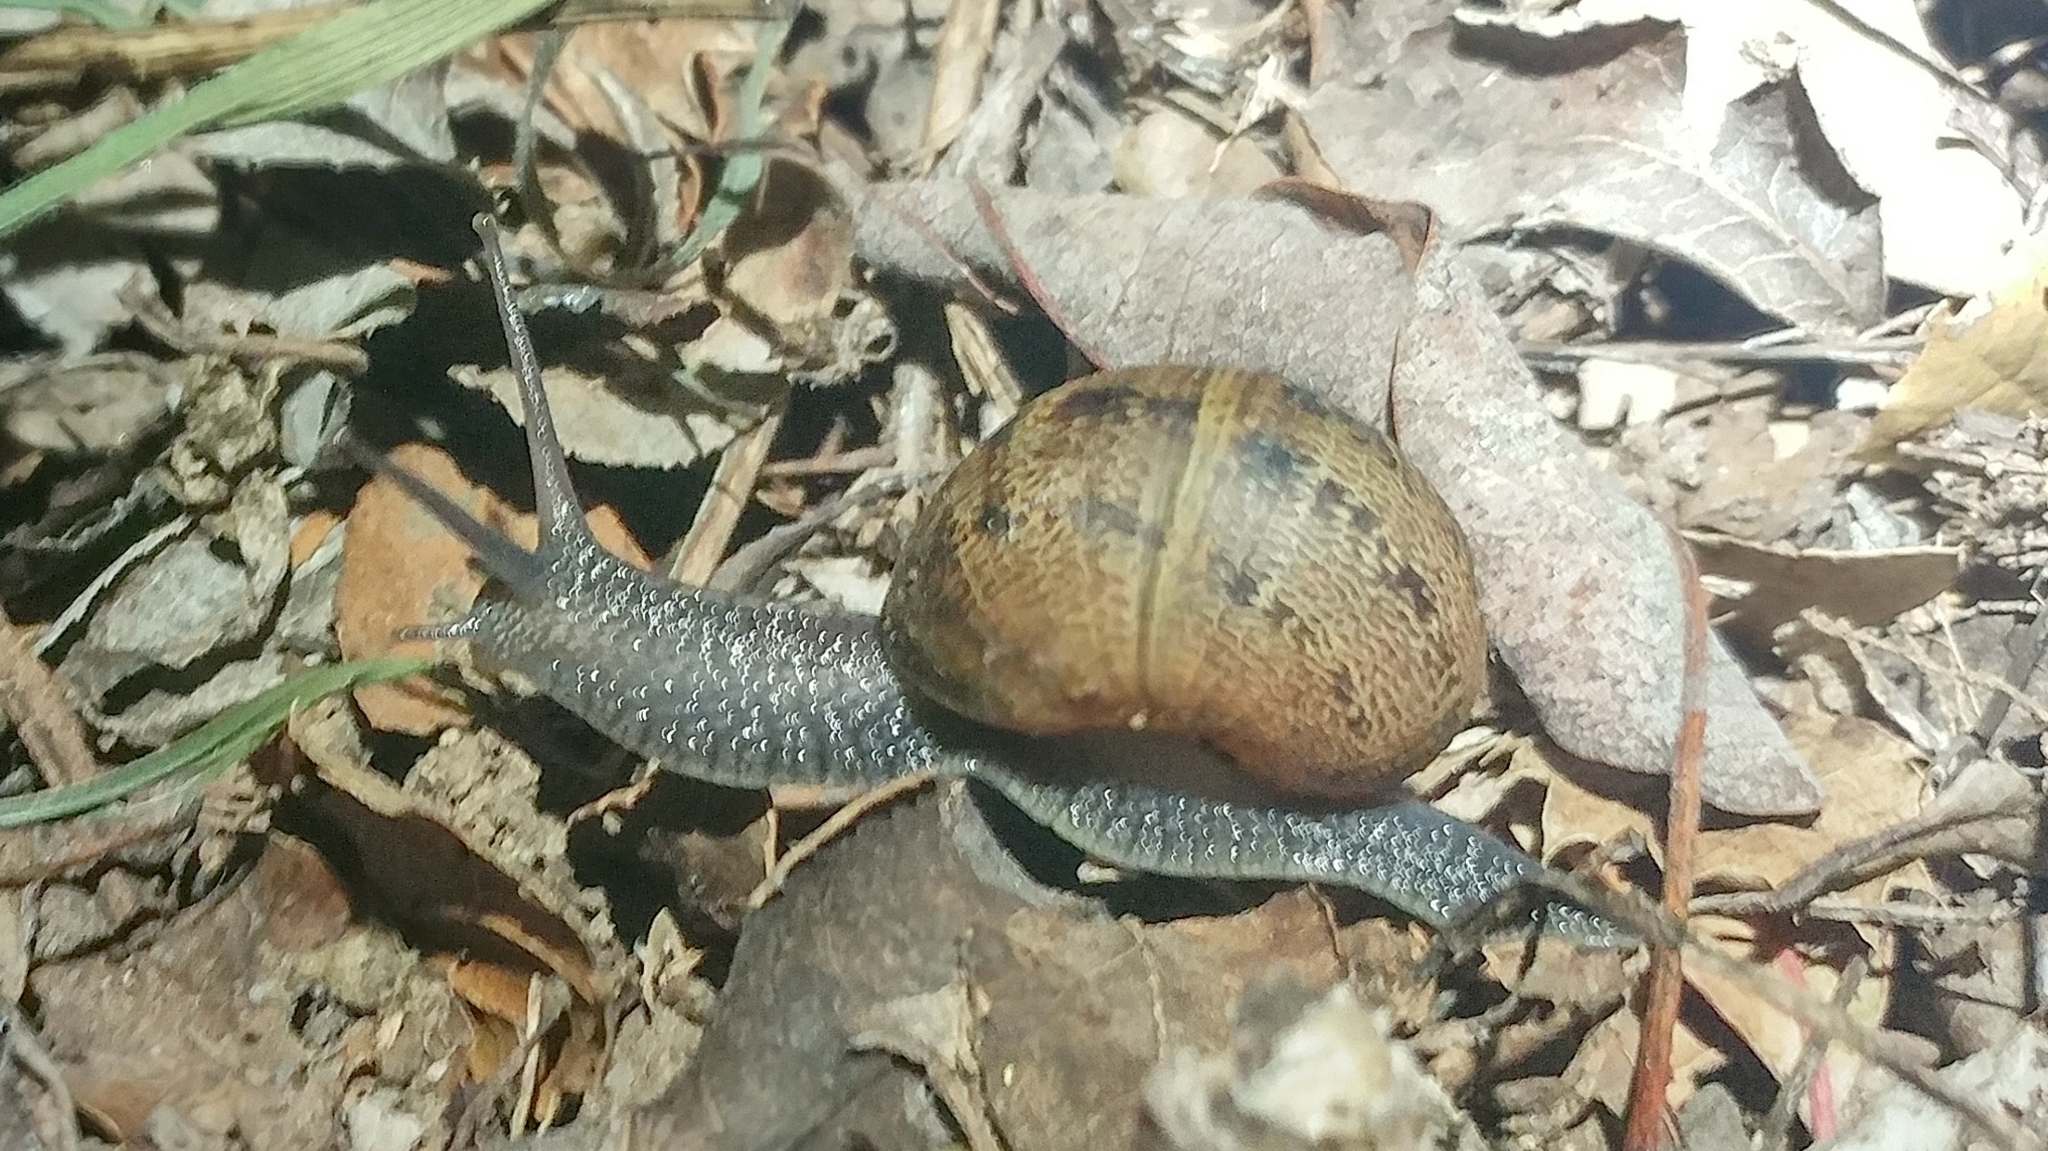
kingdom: Animalia
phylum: Mollusca
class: Gastropoda
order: Stylommatophora
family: Helicidae
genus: Cornu
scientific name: Cornu aspersum
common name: Brown garden snail
